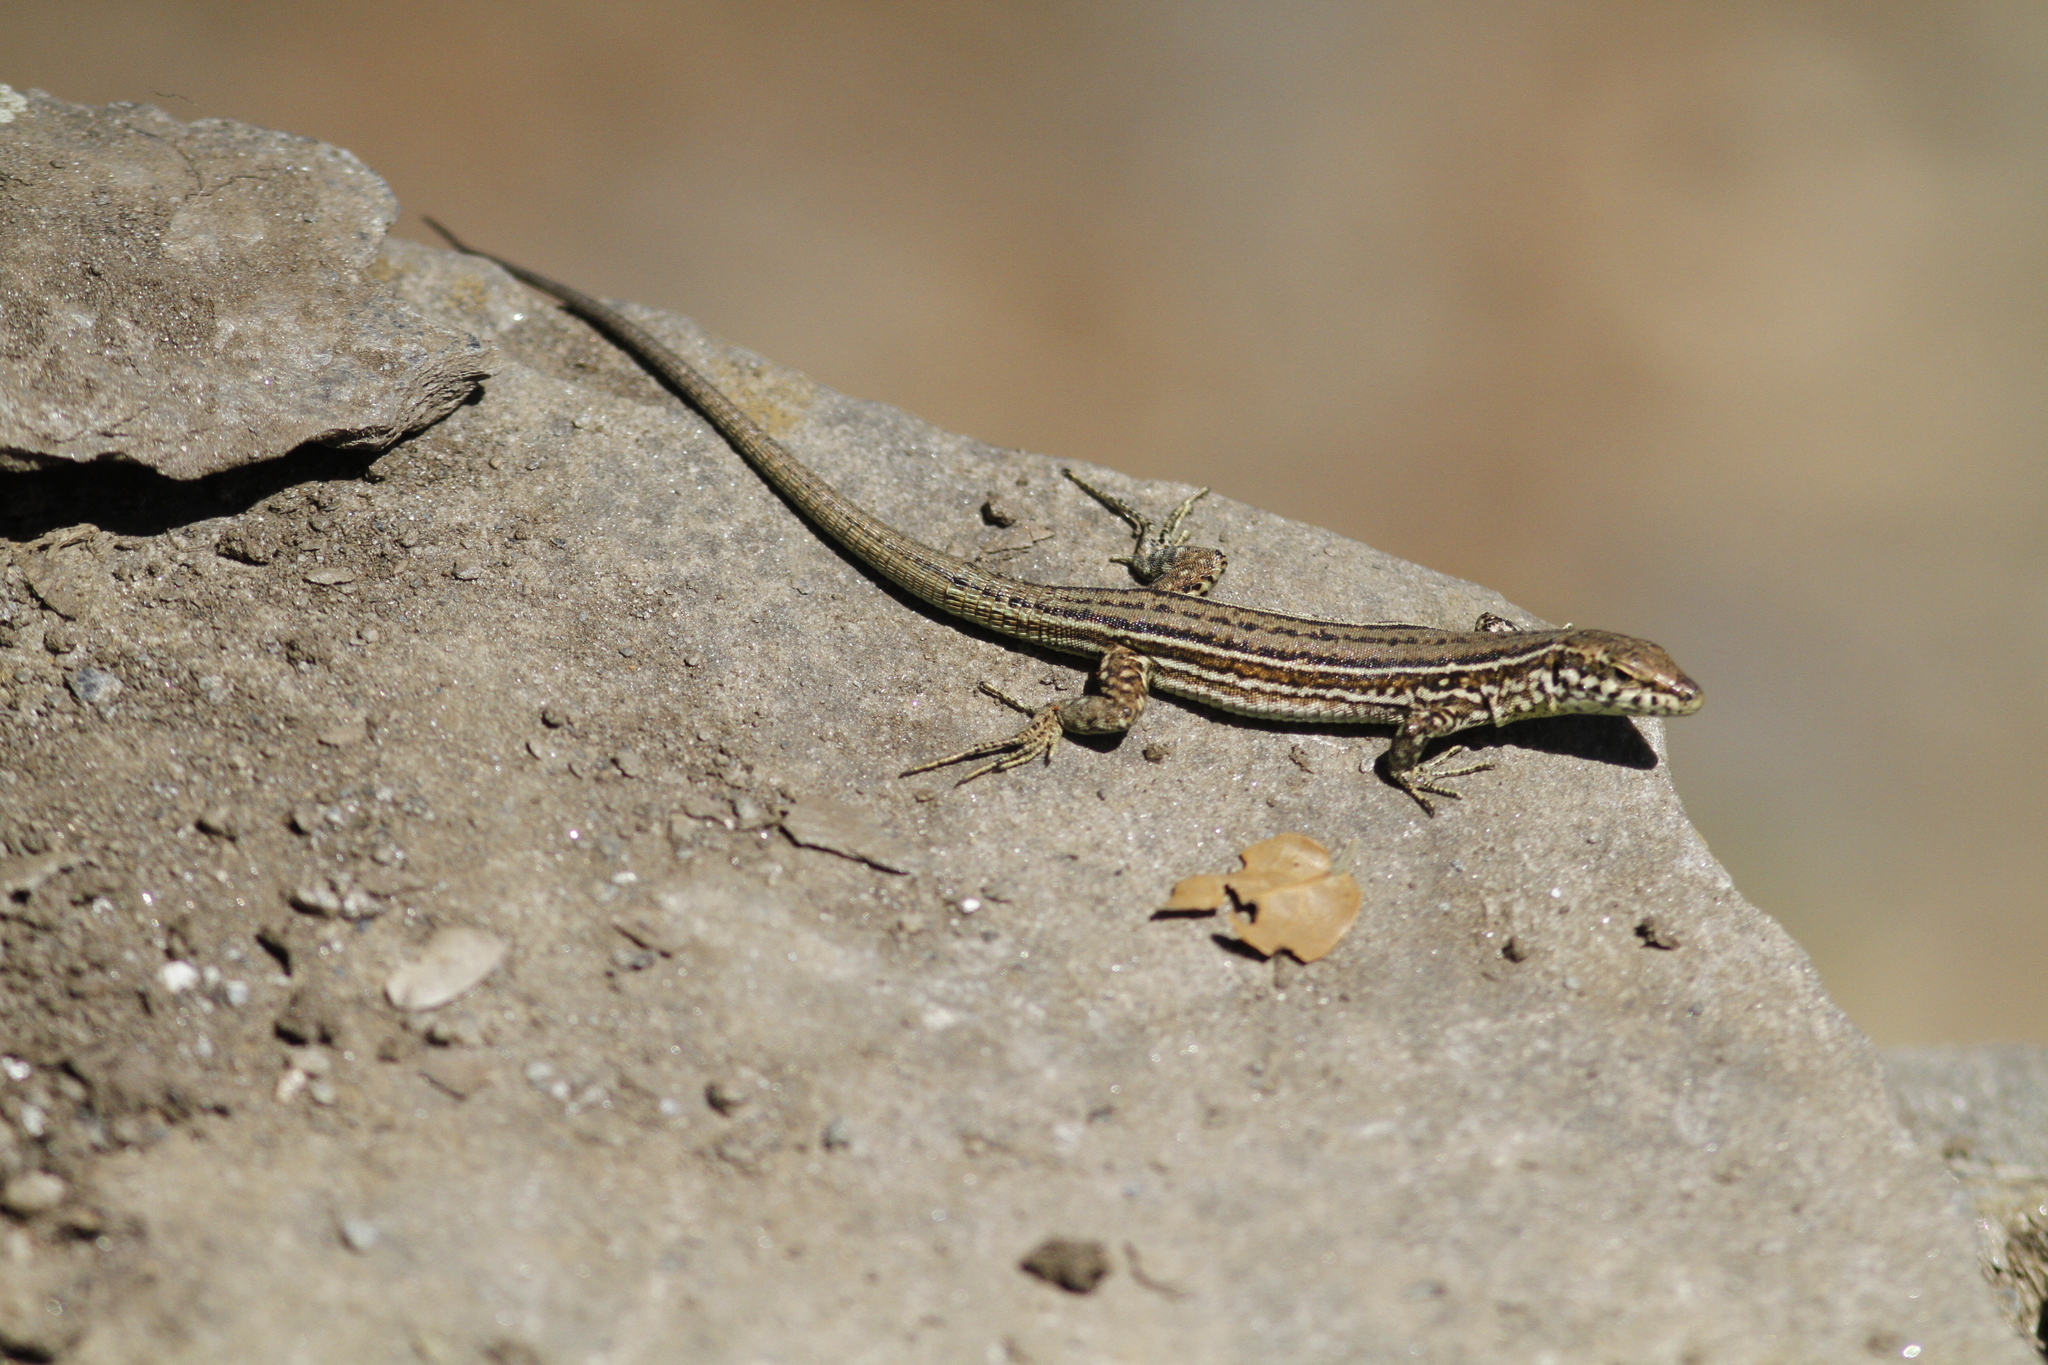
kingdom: Animalia
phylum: Chordata
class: Squamata
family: Lacertidae
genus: Podarcis
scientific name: Podarcis tiliguerta
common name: Tyrrhenian wall lizard
